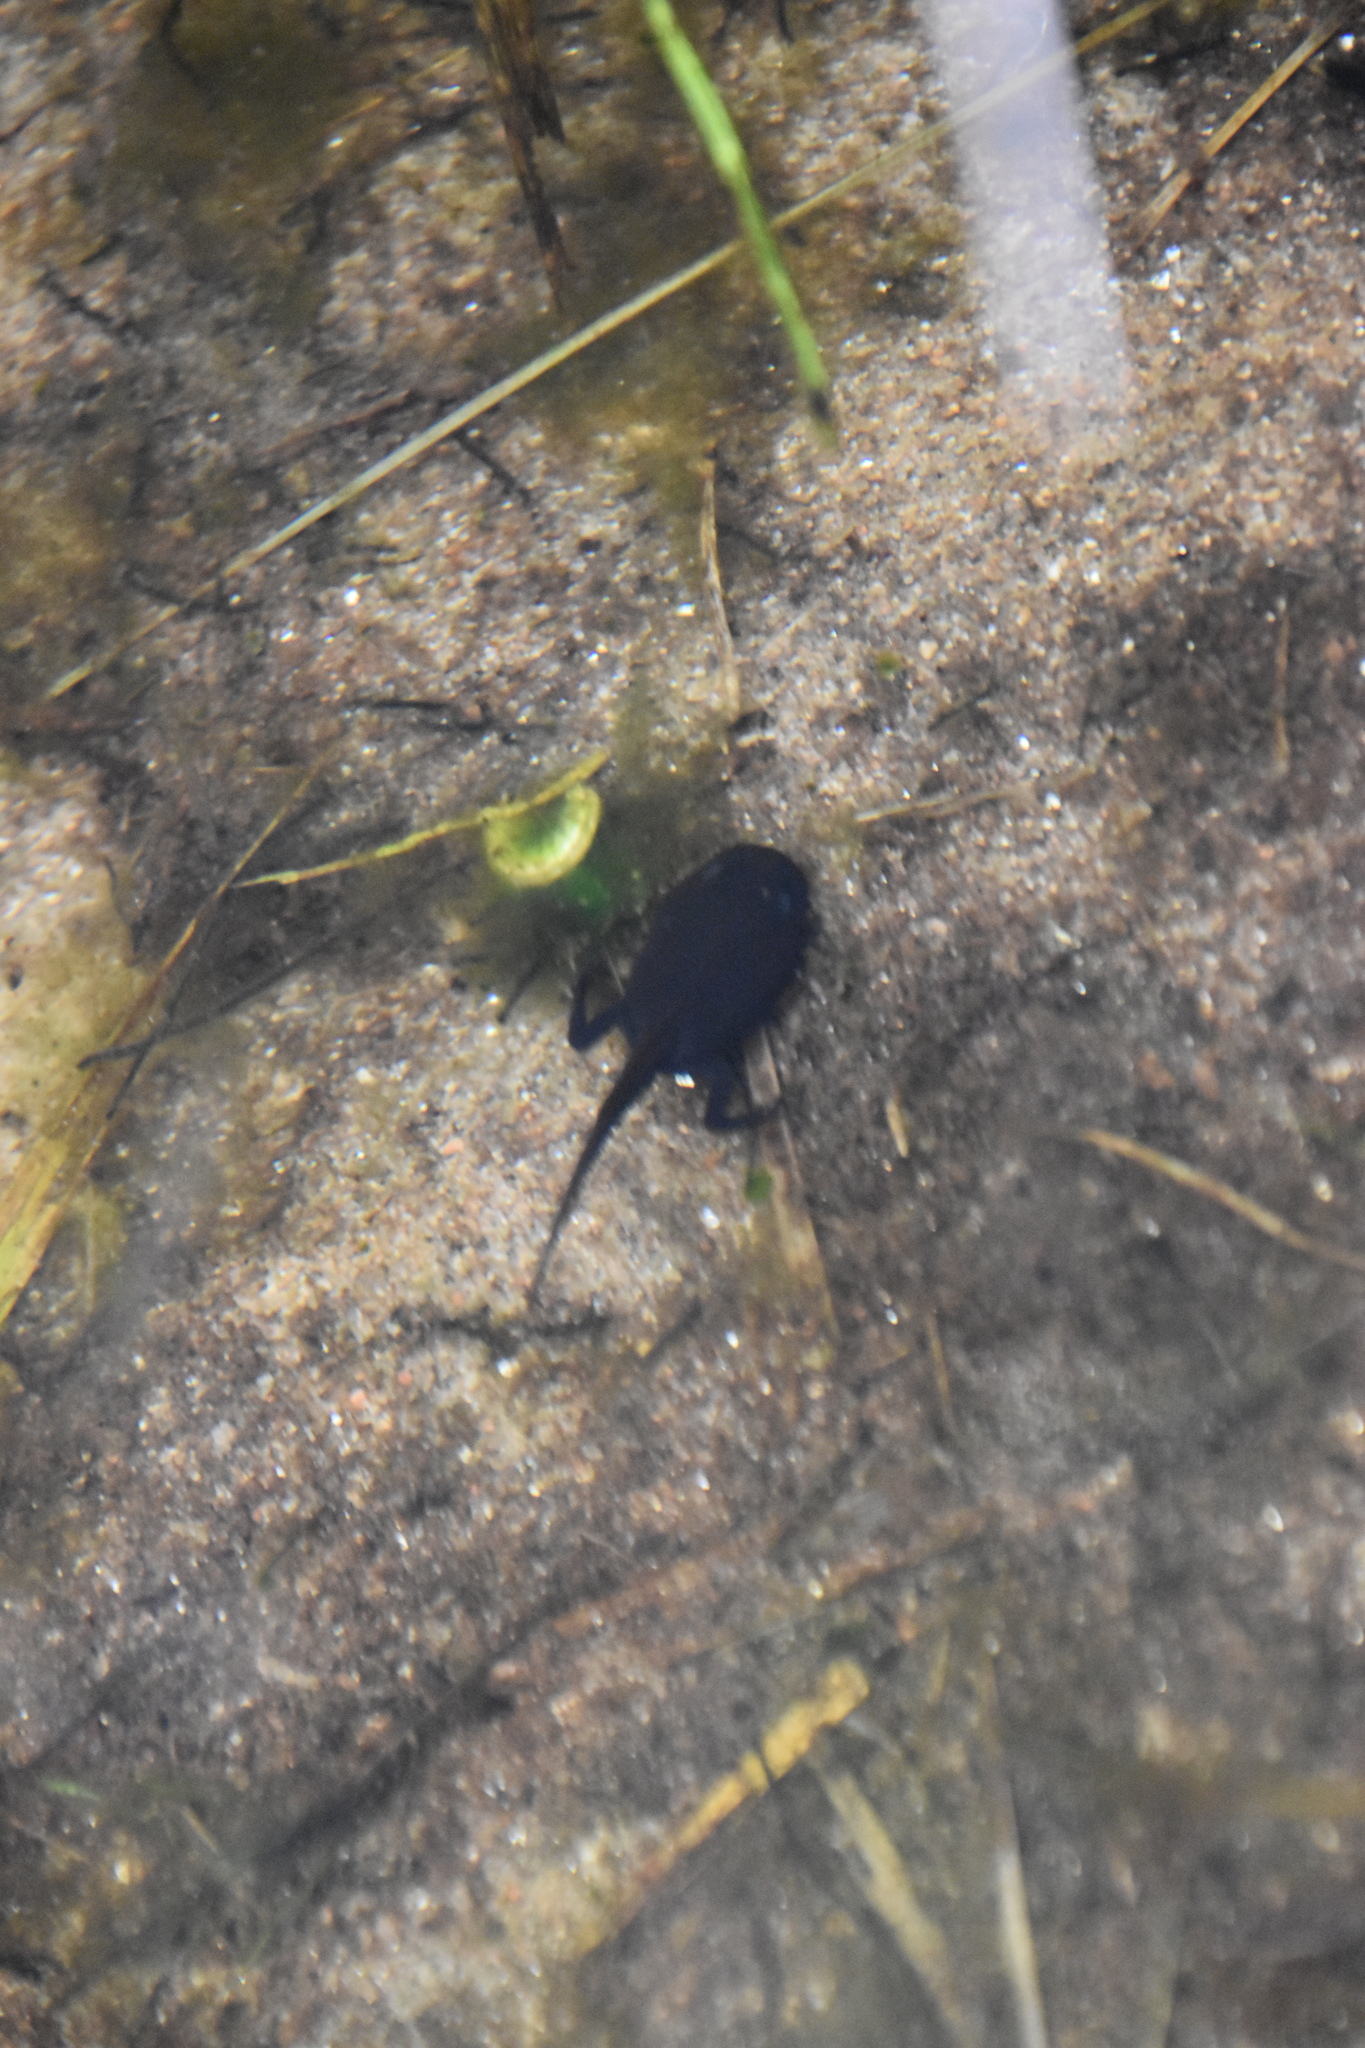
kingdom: Animalia
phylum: Chordata
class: Amphibia
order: Anura
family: Bufonidae
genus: Bufo
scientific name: Bufo bufo
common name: Common toad
